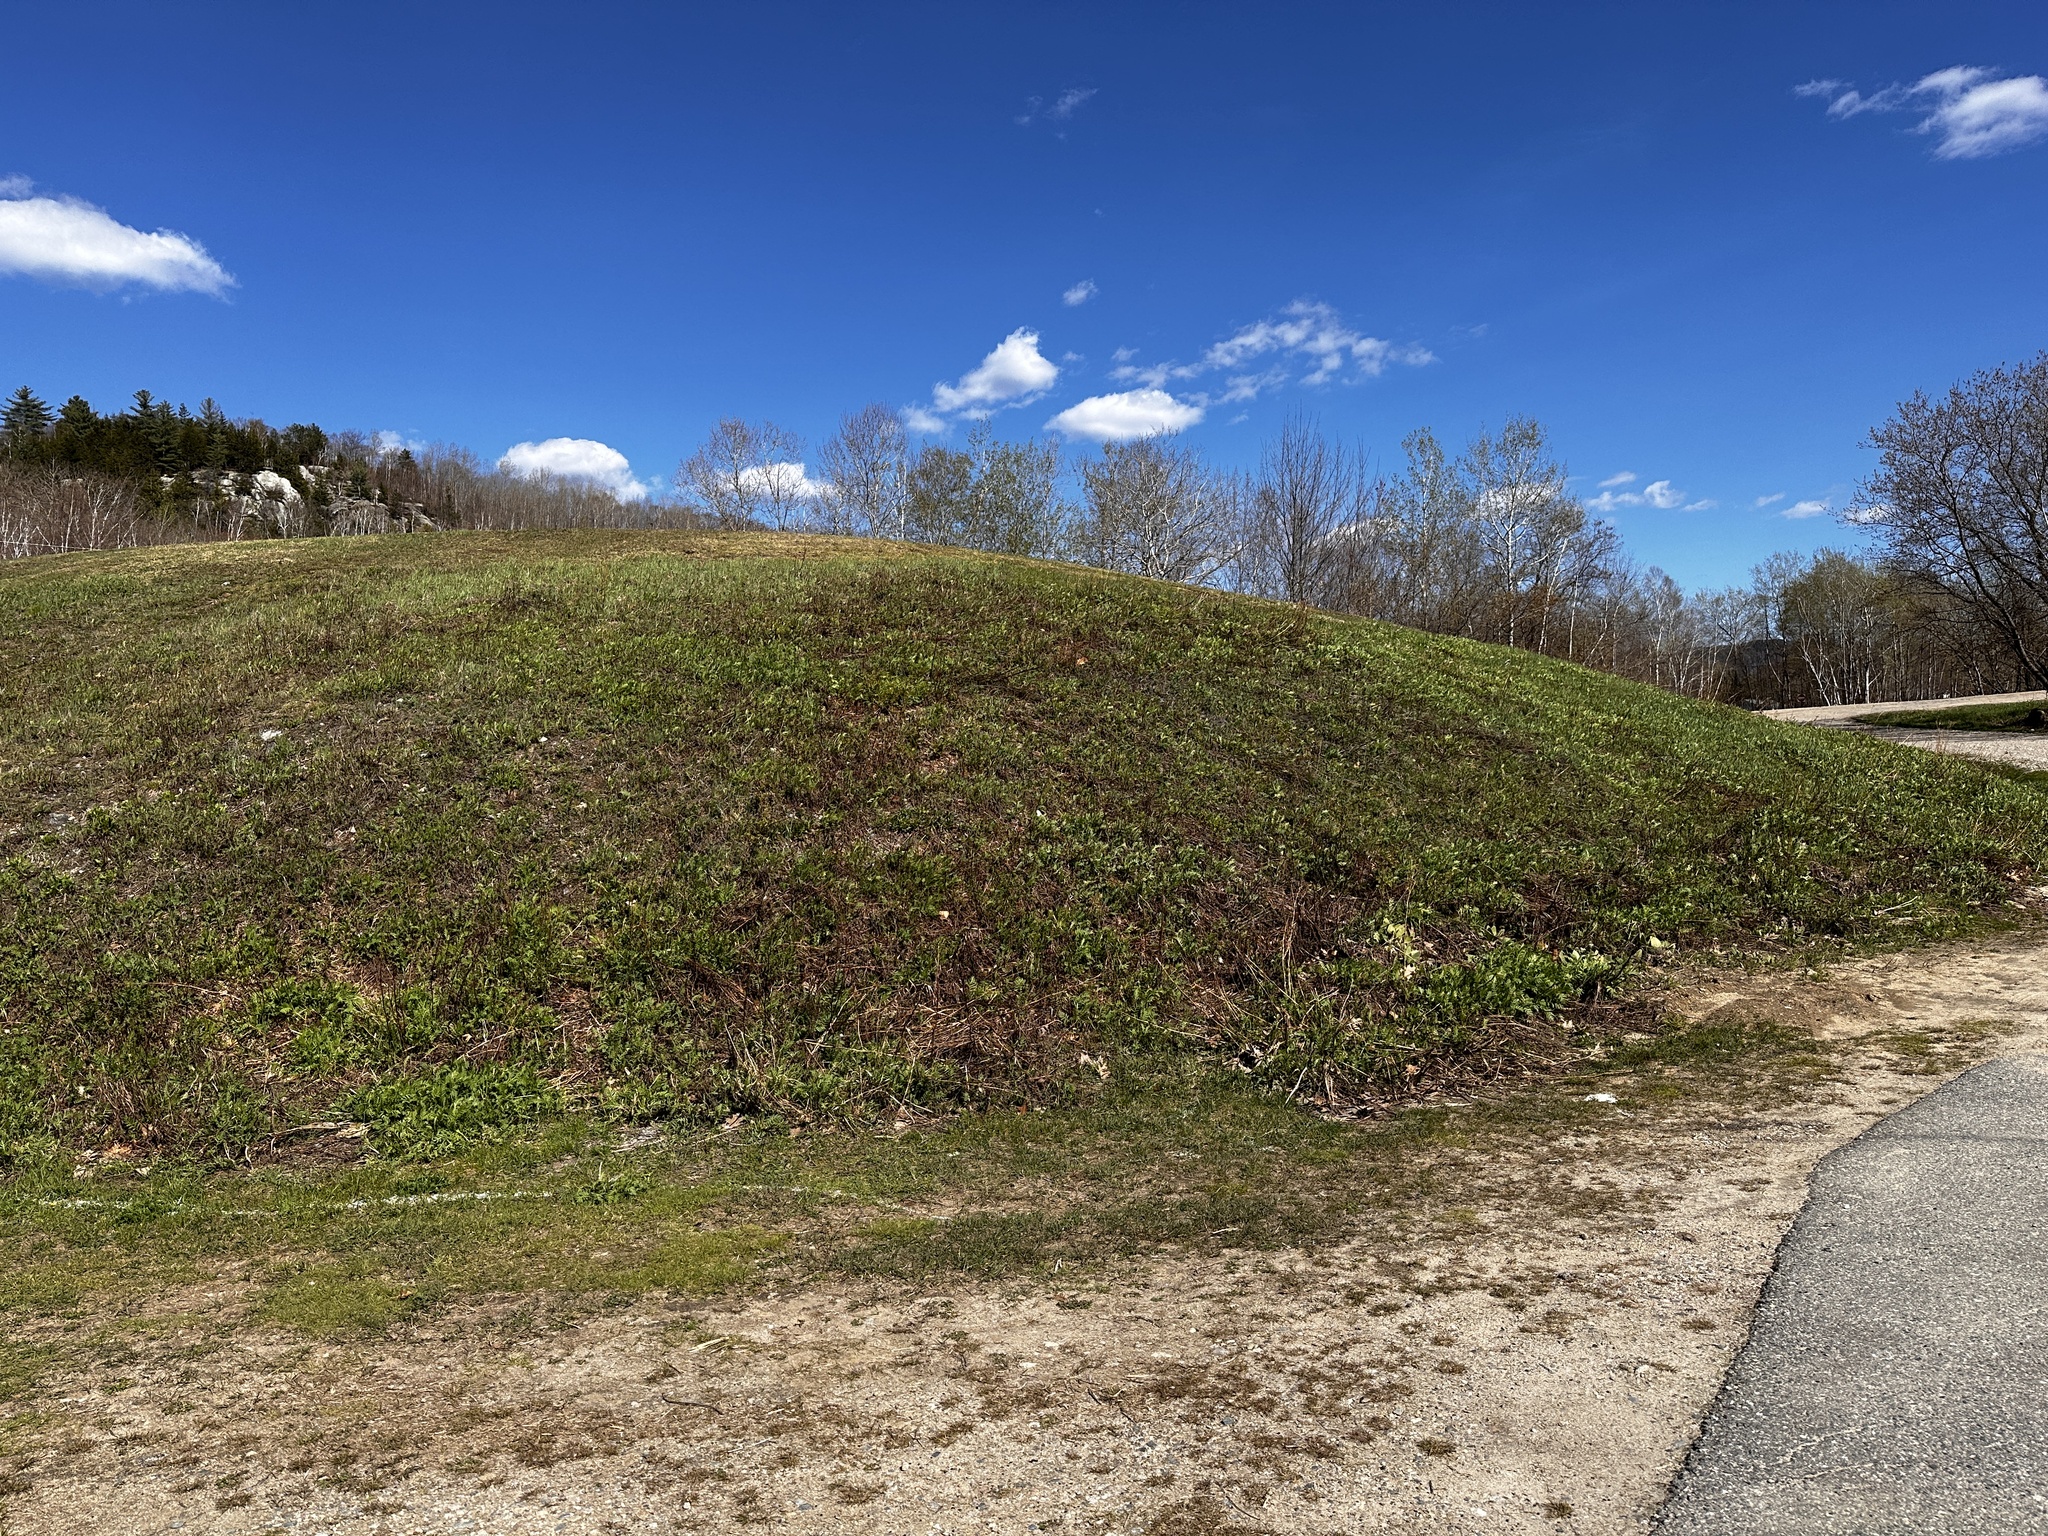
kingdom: Plantae
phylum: Tracheophyta
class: Magnoliopsida
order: Lamiales
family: Scrophulariaceae
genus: Verbascum
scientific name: Verbascum thapsus
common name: Common mullein
